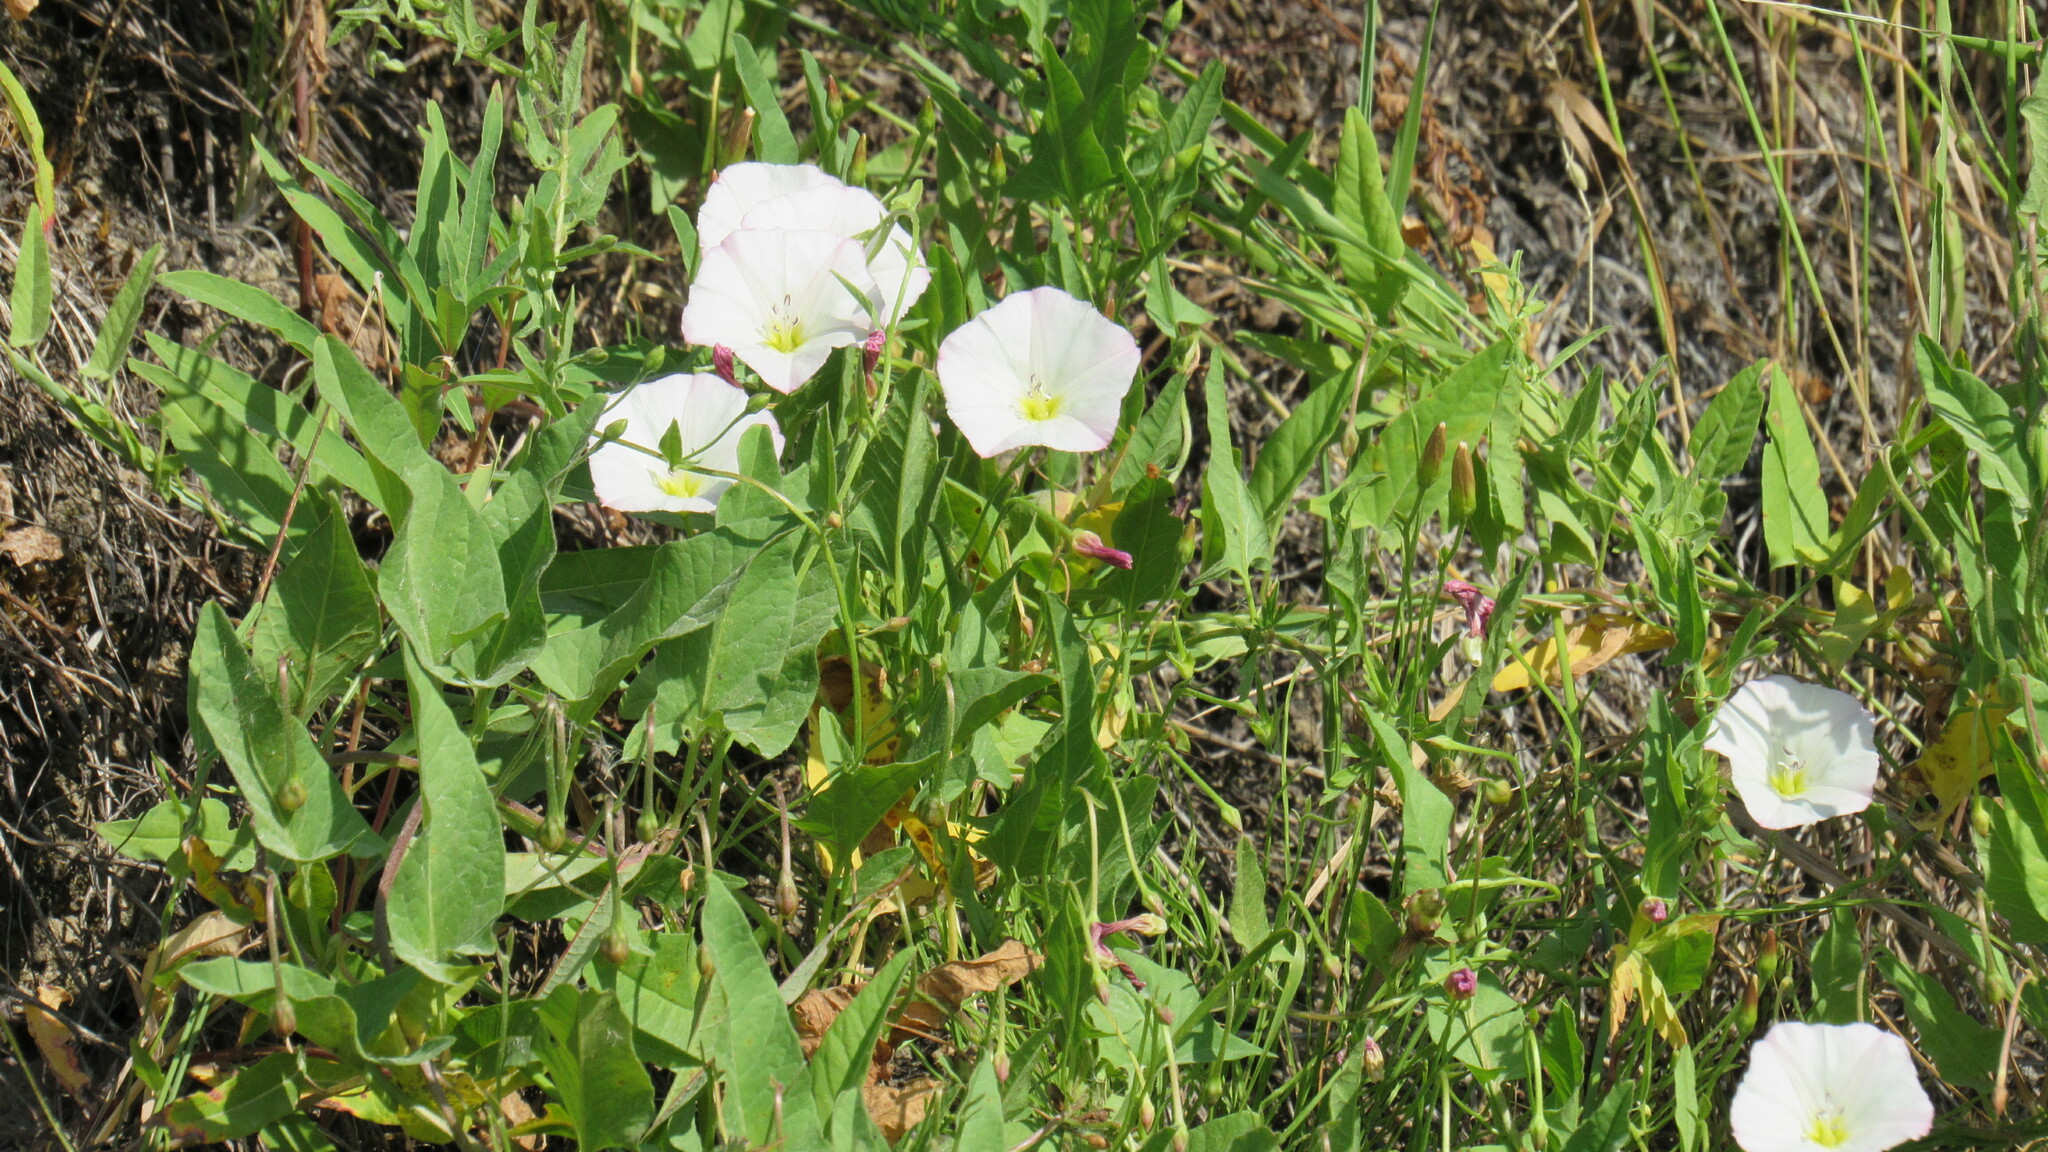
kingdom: Plantae
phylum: Tracheophyta
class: Magnoliopsida
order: Solanales
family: Convolvulaceae
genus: Convolvulus
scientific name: Convolvulus arvensis
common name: Field bindweed
